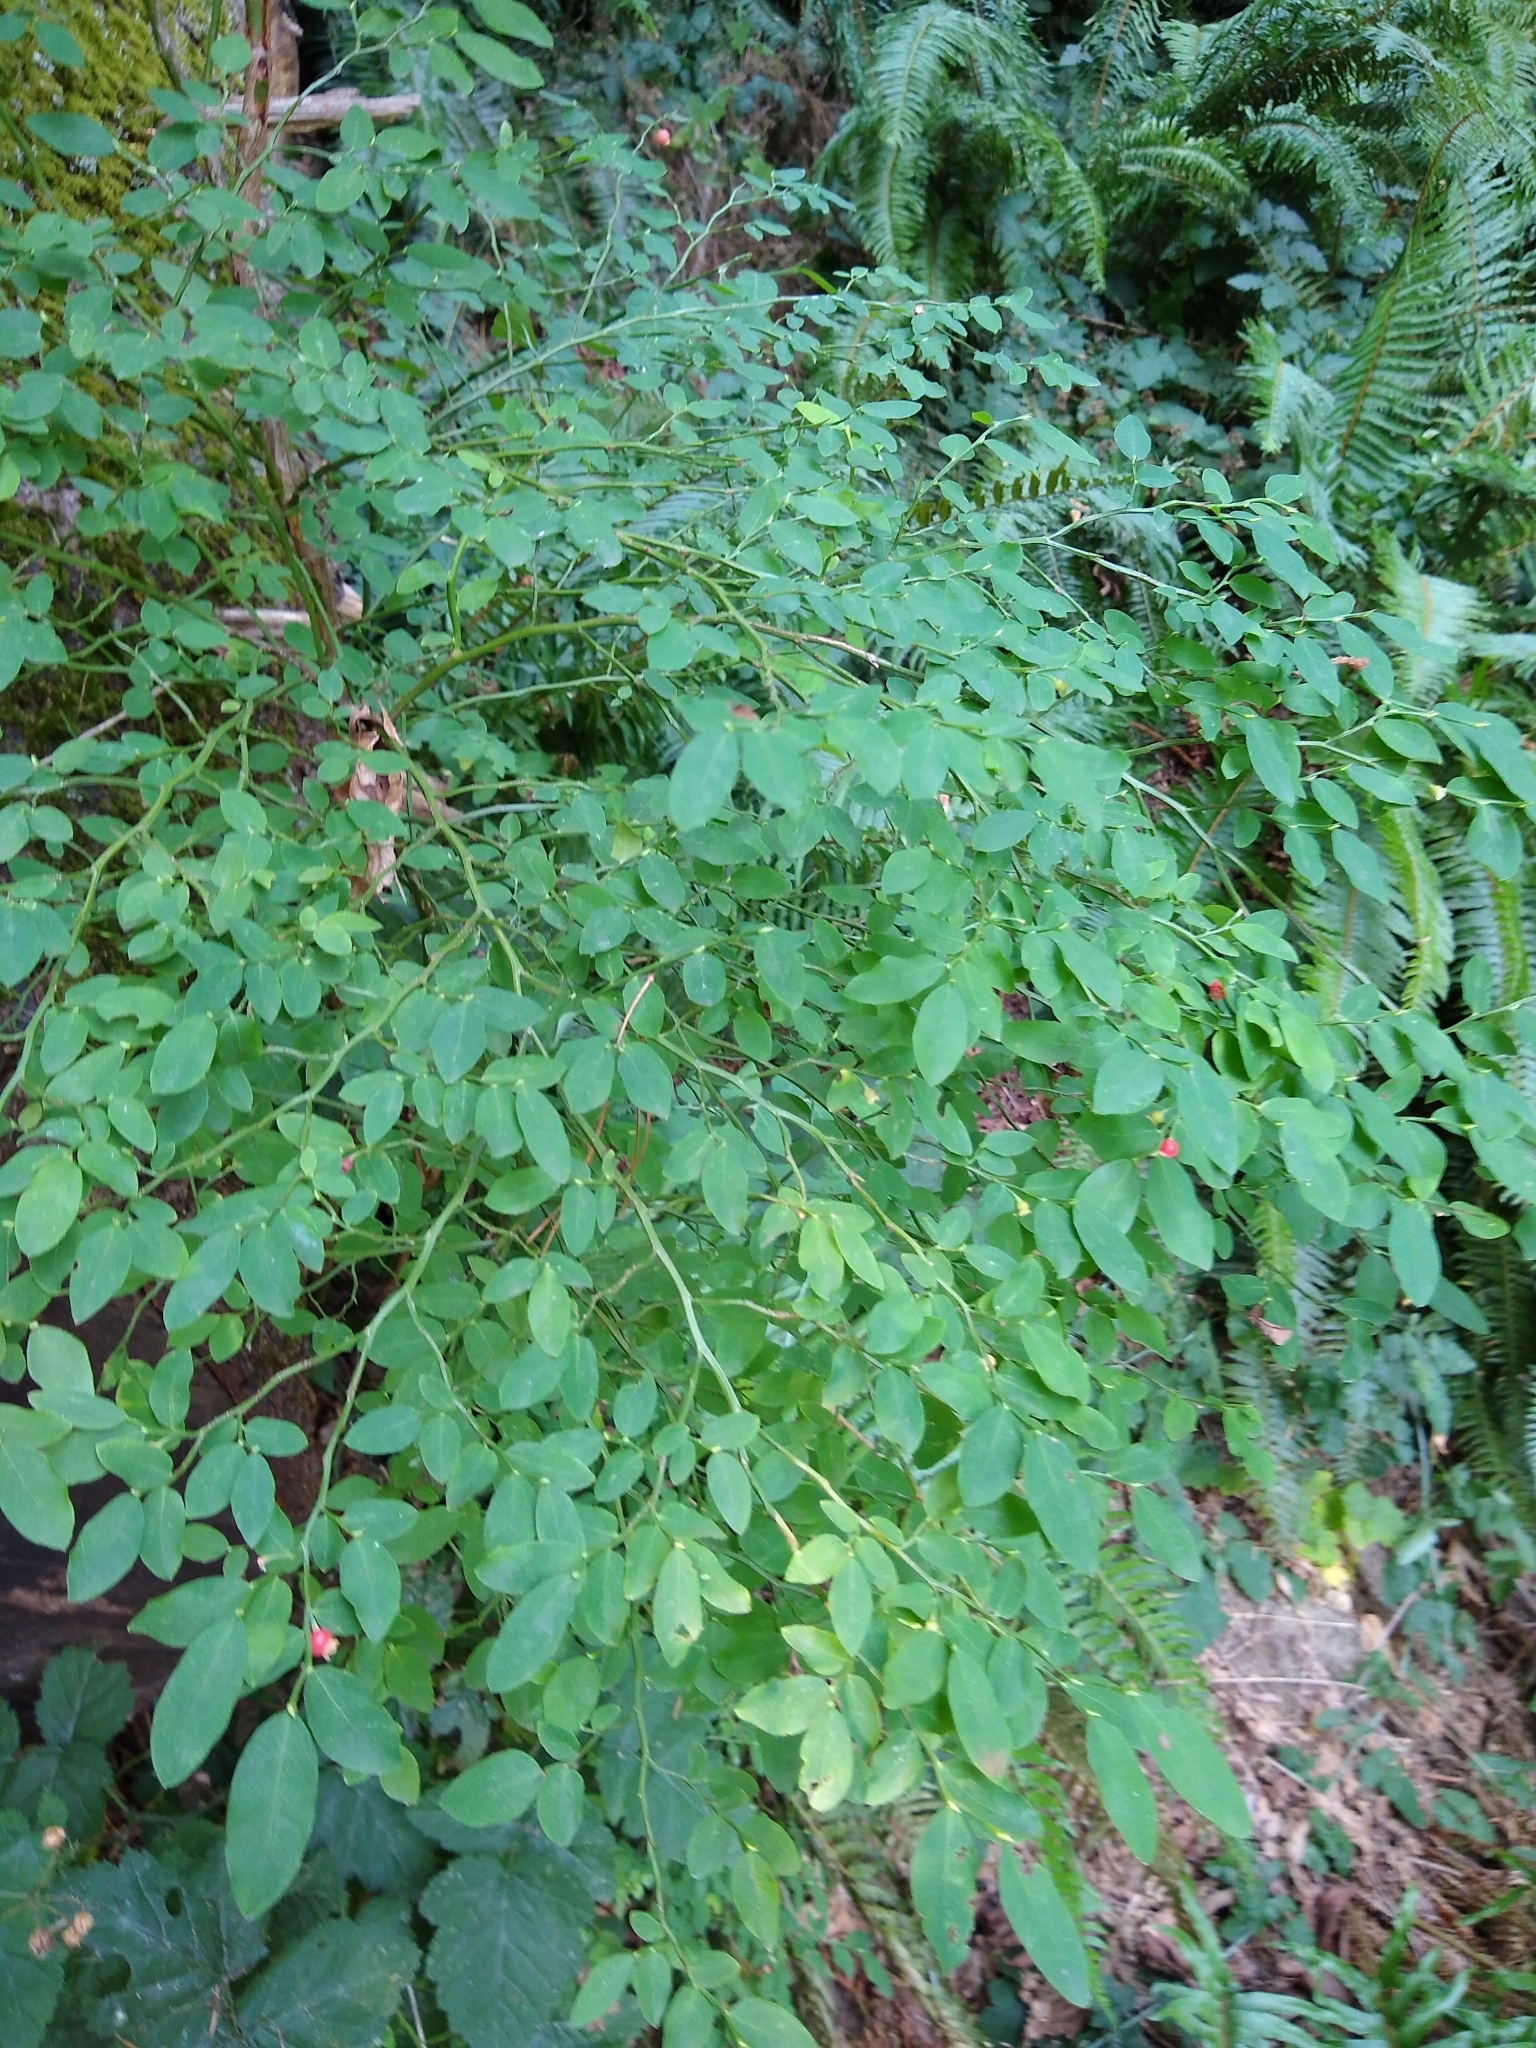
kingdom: Plantae
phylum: Tracheophyta
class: Magnoliopsida
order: Ericales
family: Ericaceae
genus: Vaccinium
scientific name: Vaccinium parvifolium
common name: Red-huckleberry
